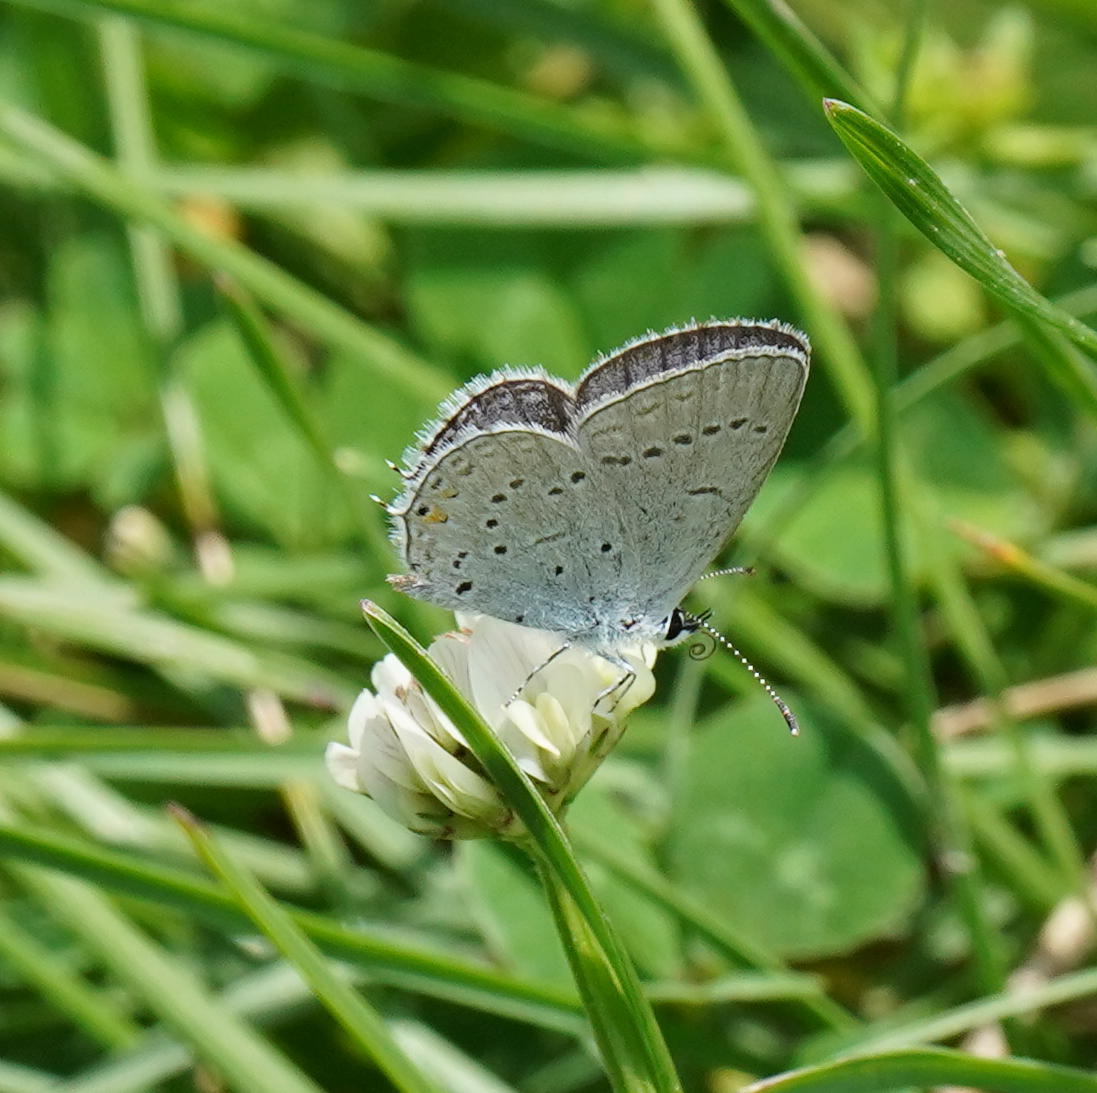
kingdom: Animalia
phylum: Arthropoda
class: Insecta
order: Lepidoptera
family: Lycaenidae
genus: Elkalyce
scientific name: Elkalyce comyntas
